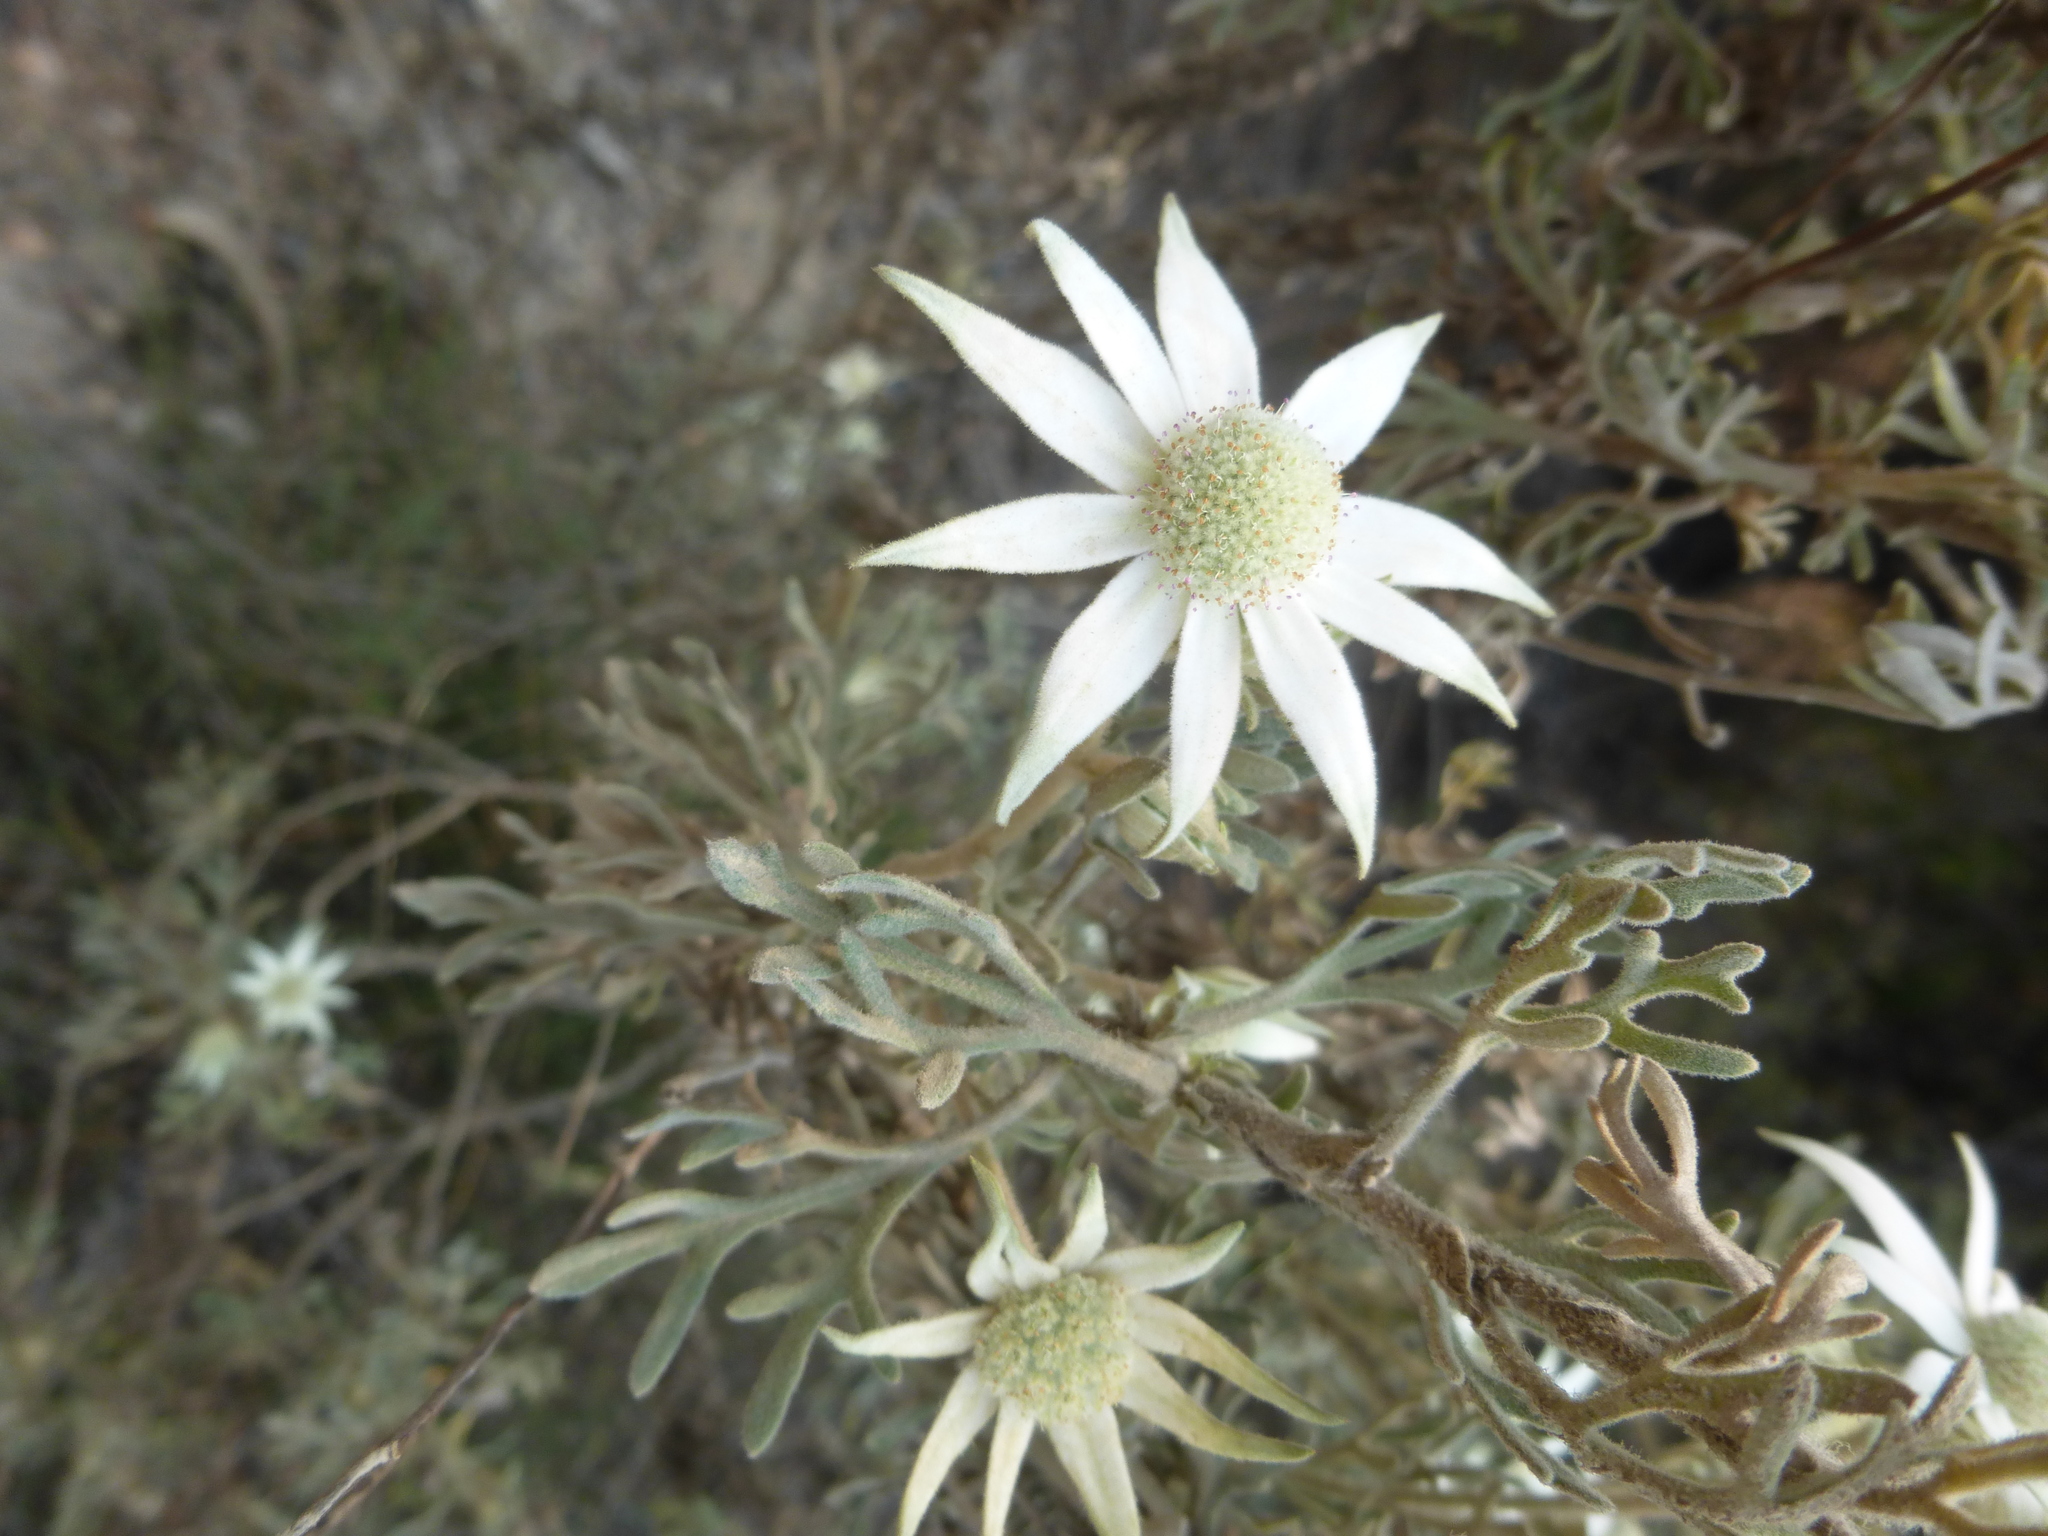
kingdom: Plantae
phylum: Tracheophyta
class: Magnoliopsida
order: Apiales
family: Apiaceae
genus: Actinotus
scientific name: Actinotus helianthi
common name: Flannel-flower
